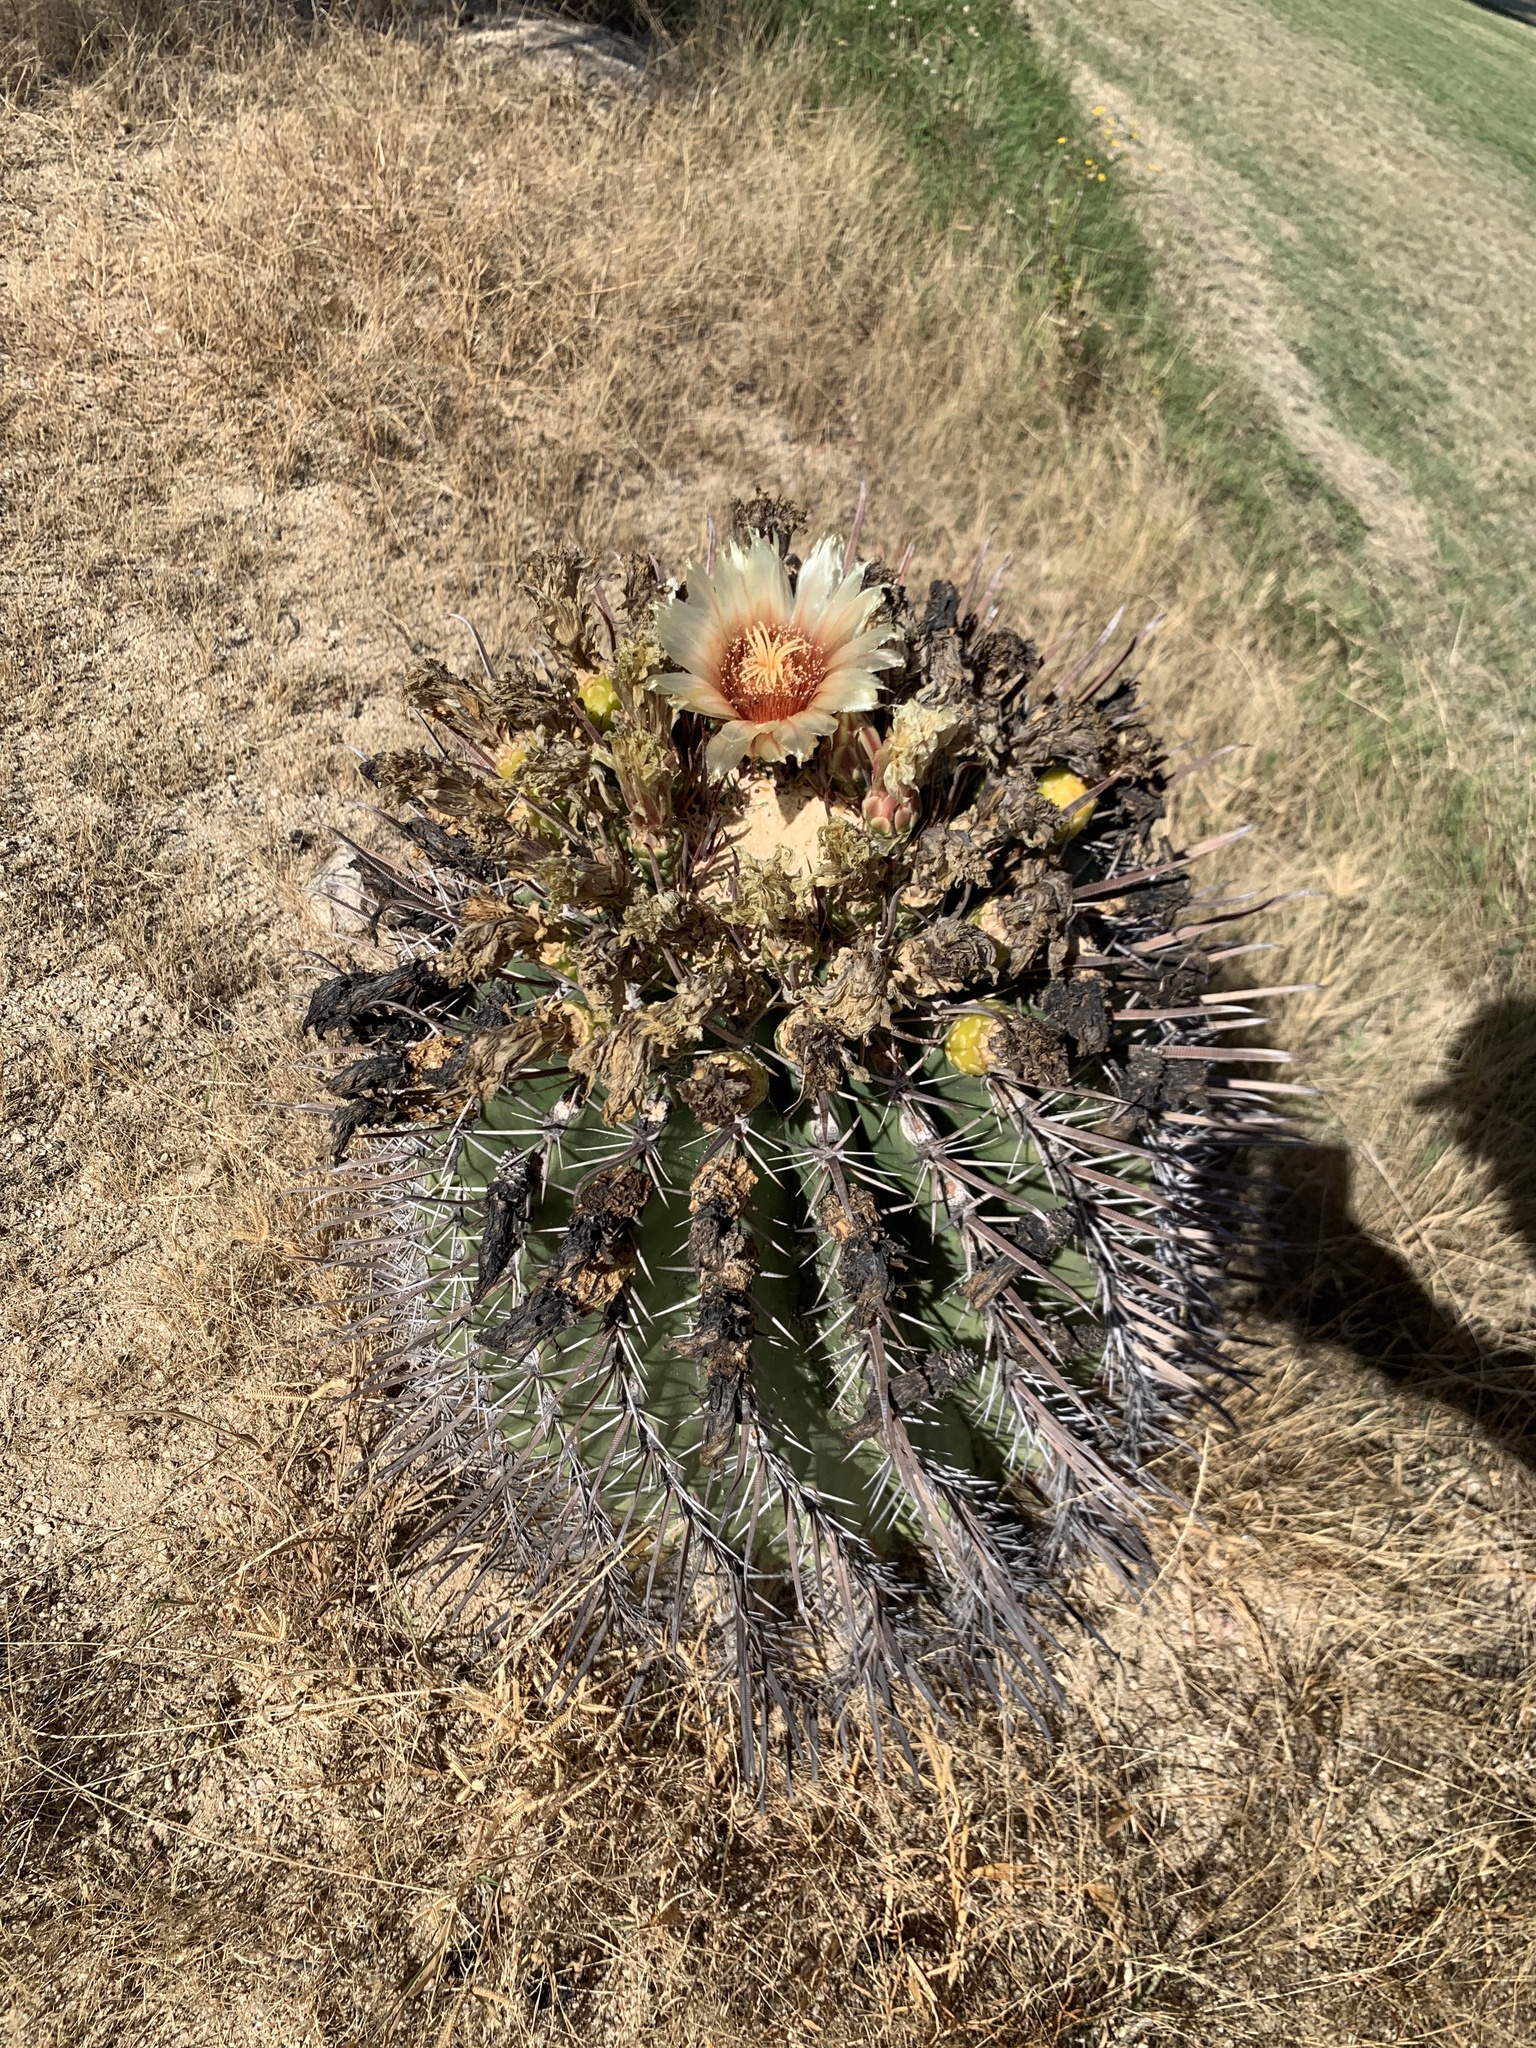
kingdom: Plantae
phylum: Tracheophyta
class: Magnoliopsida
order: Caryophyllales
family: Cactaceae
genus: Ferocactus
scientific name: Ferocactus townsendianus
